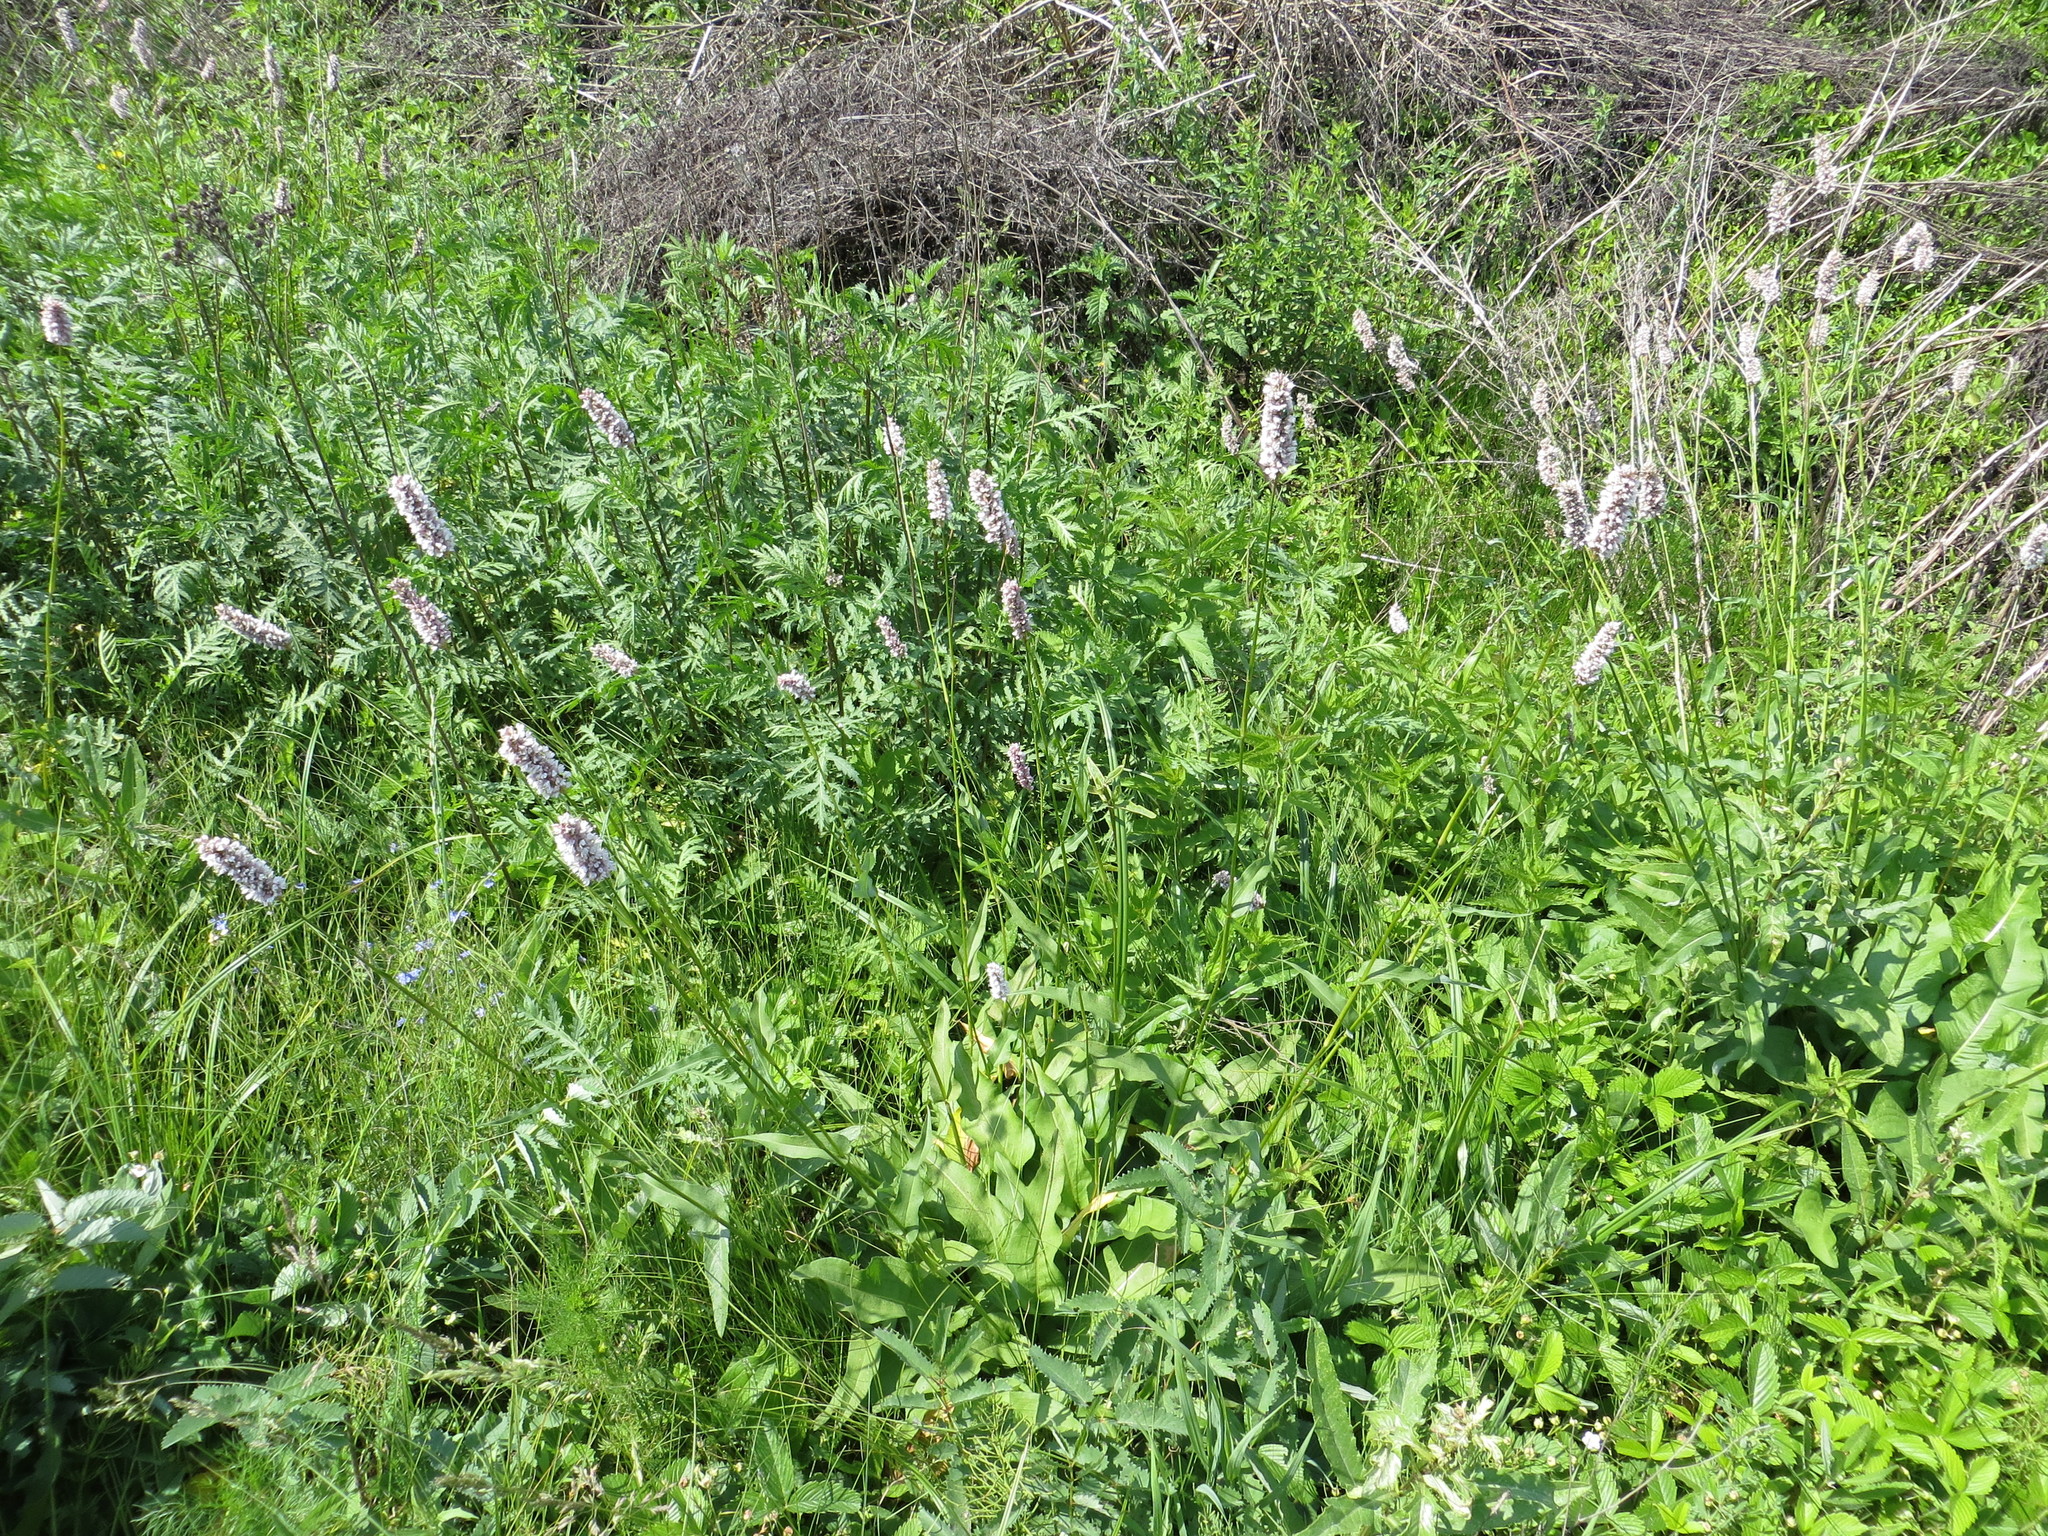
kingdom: Plantae
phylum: Tracheophyta
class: Magnoliopsida
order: Caryophyllales
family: Polygonaceae
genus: Bistorta
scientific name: Bistorta officinalis
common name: Common bistort
